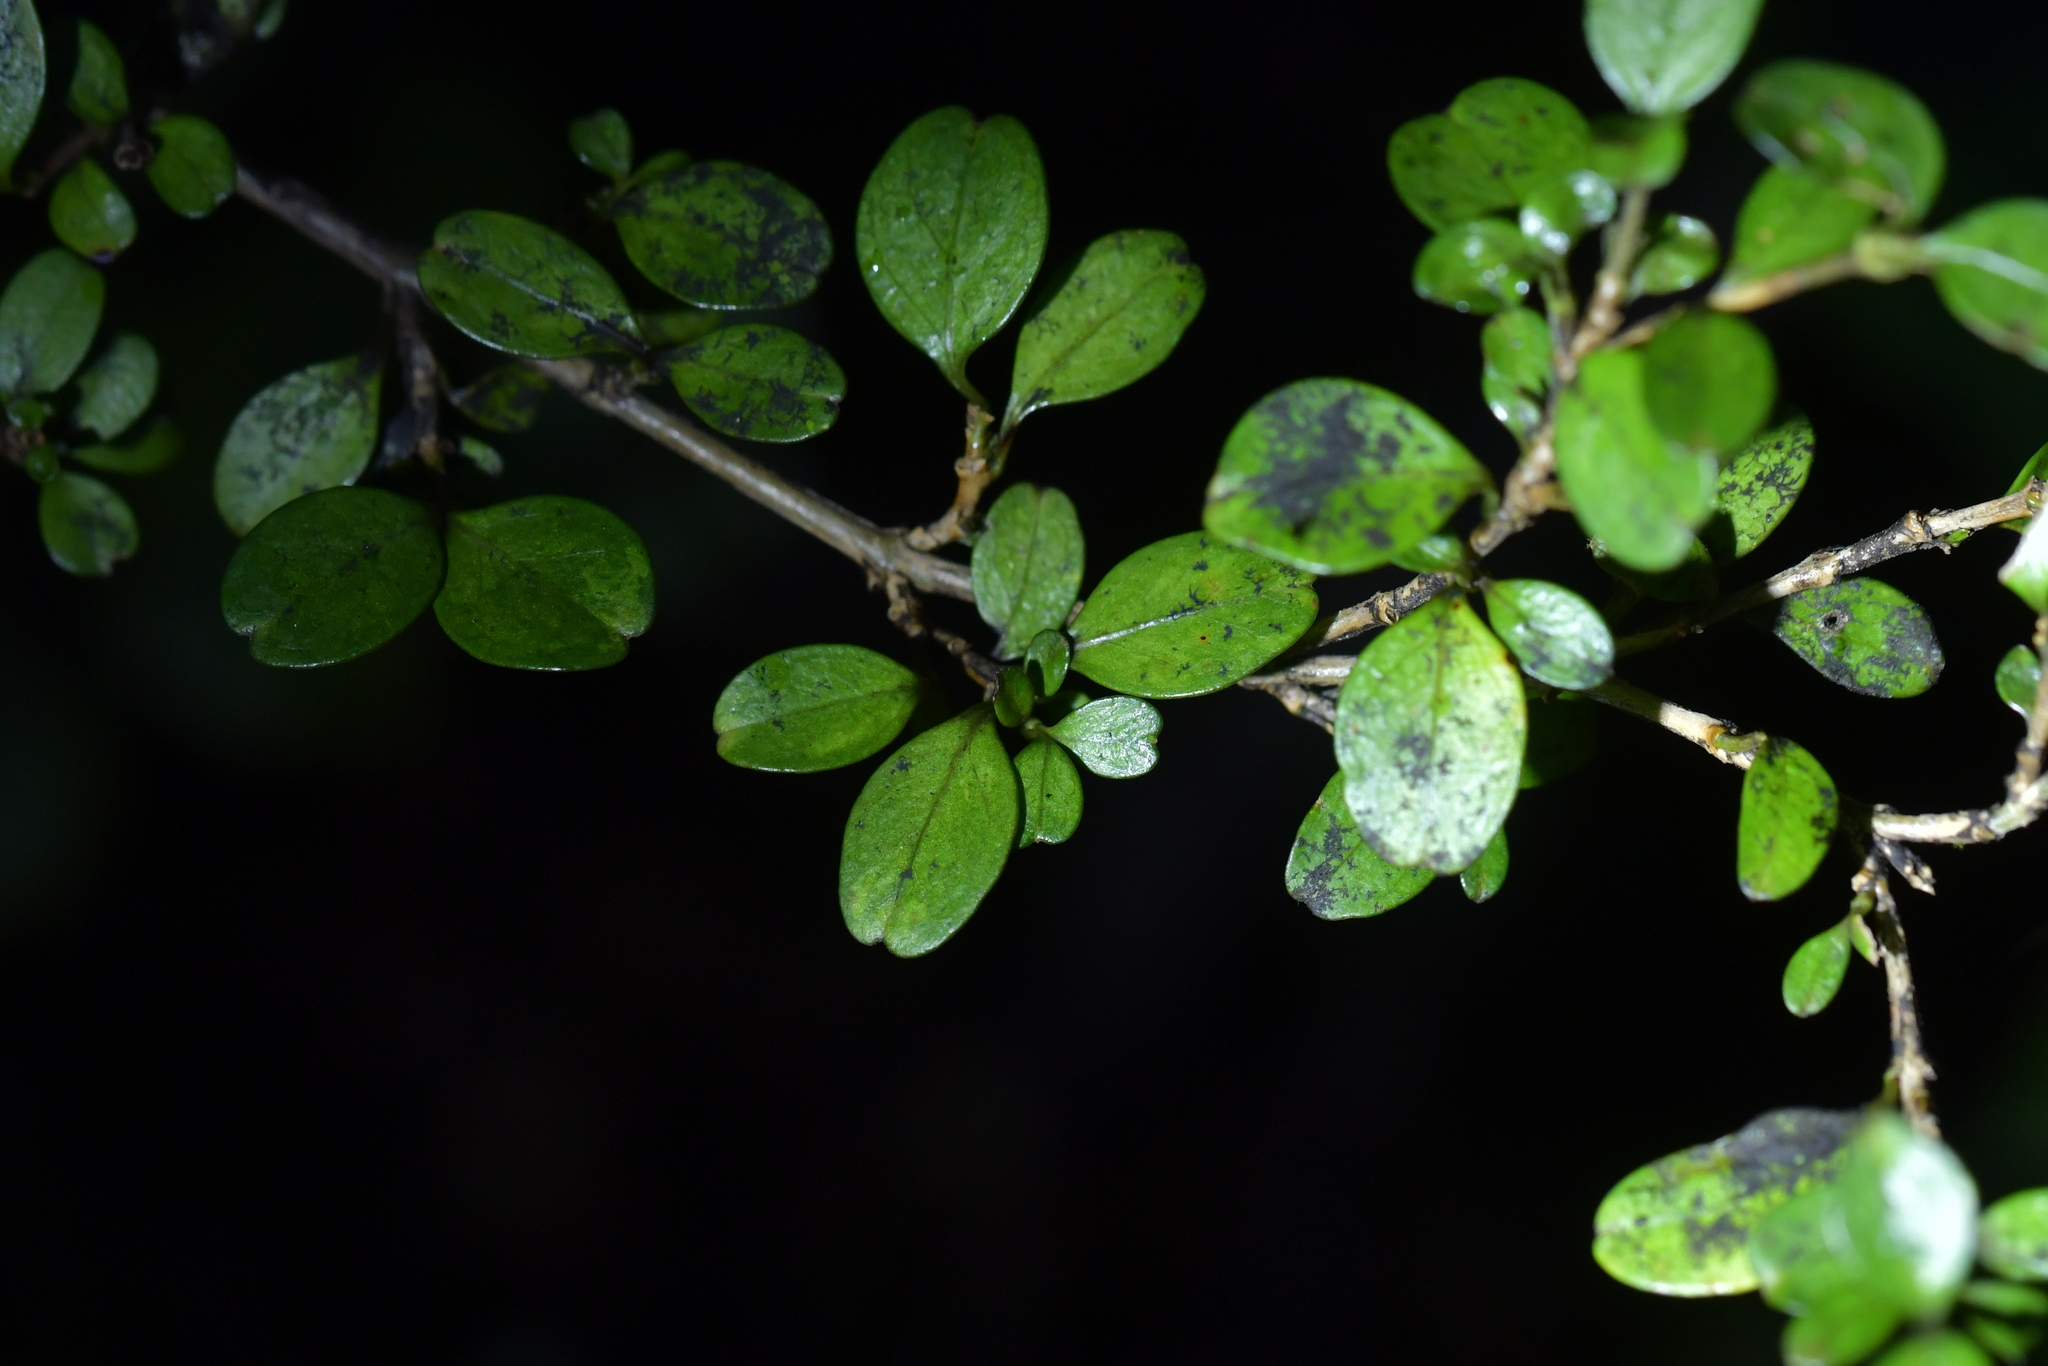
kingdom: Plantae
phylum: Tracheophyta
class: Magnoliopsida
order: Gentianales
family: Rubiaceae
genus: Coprosma
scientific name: Coprosma colensoi
